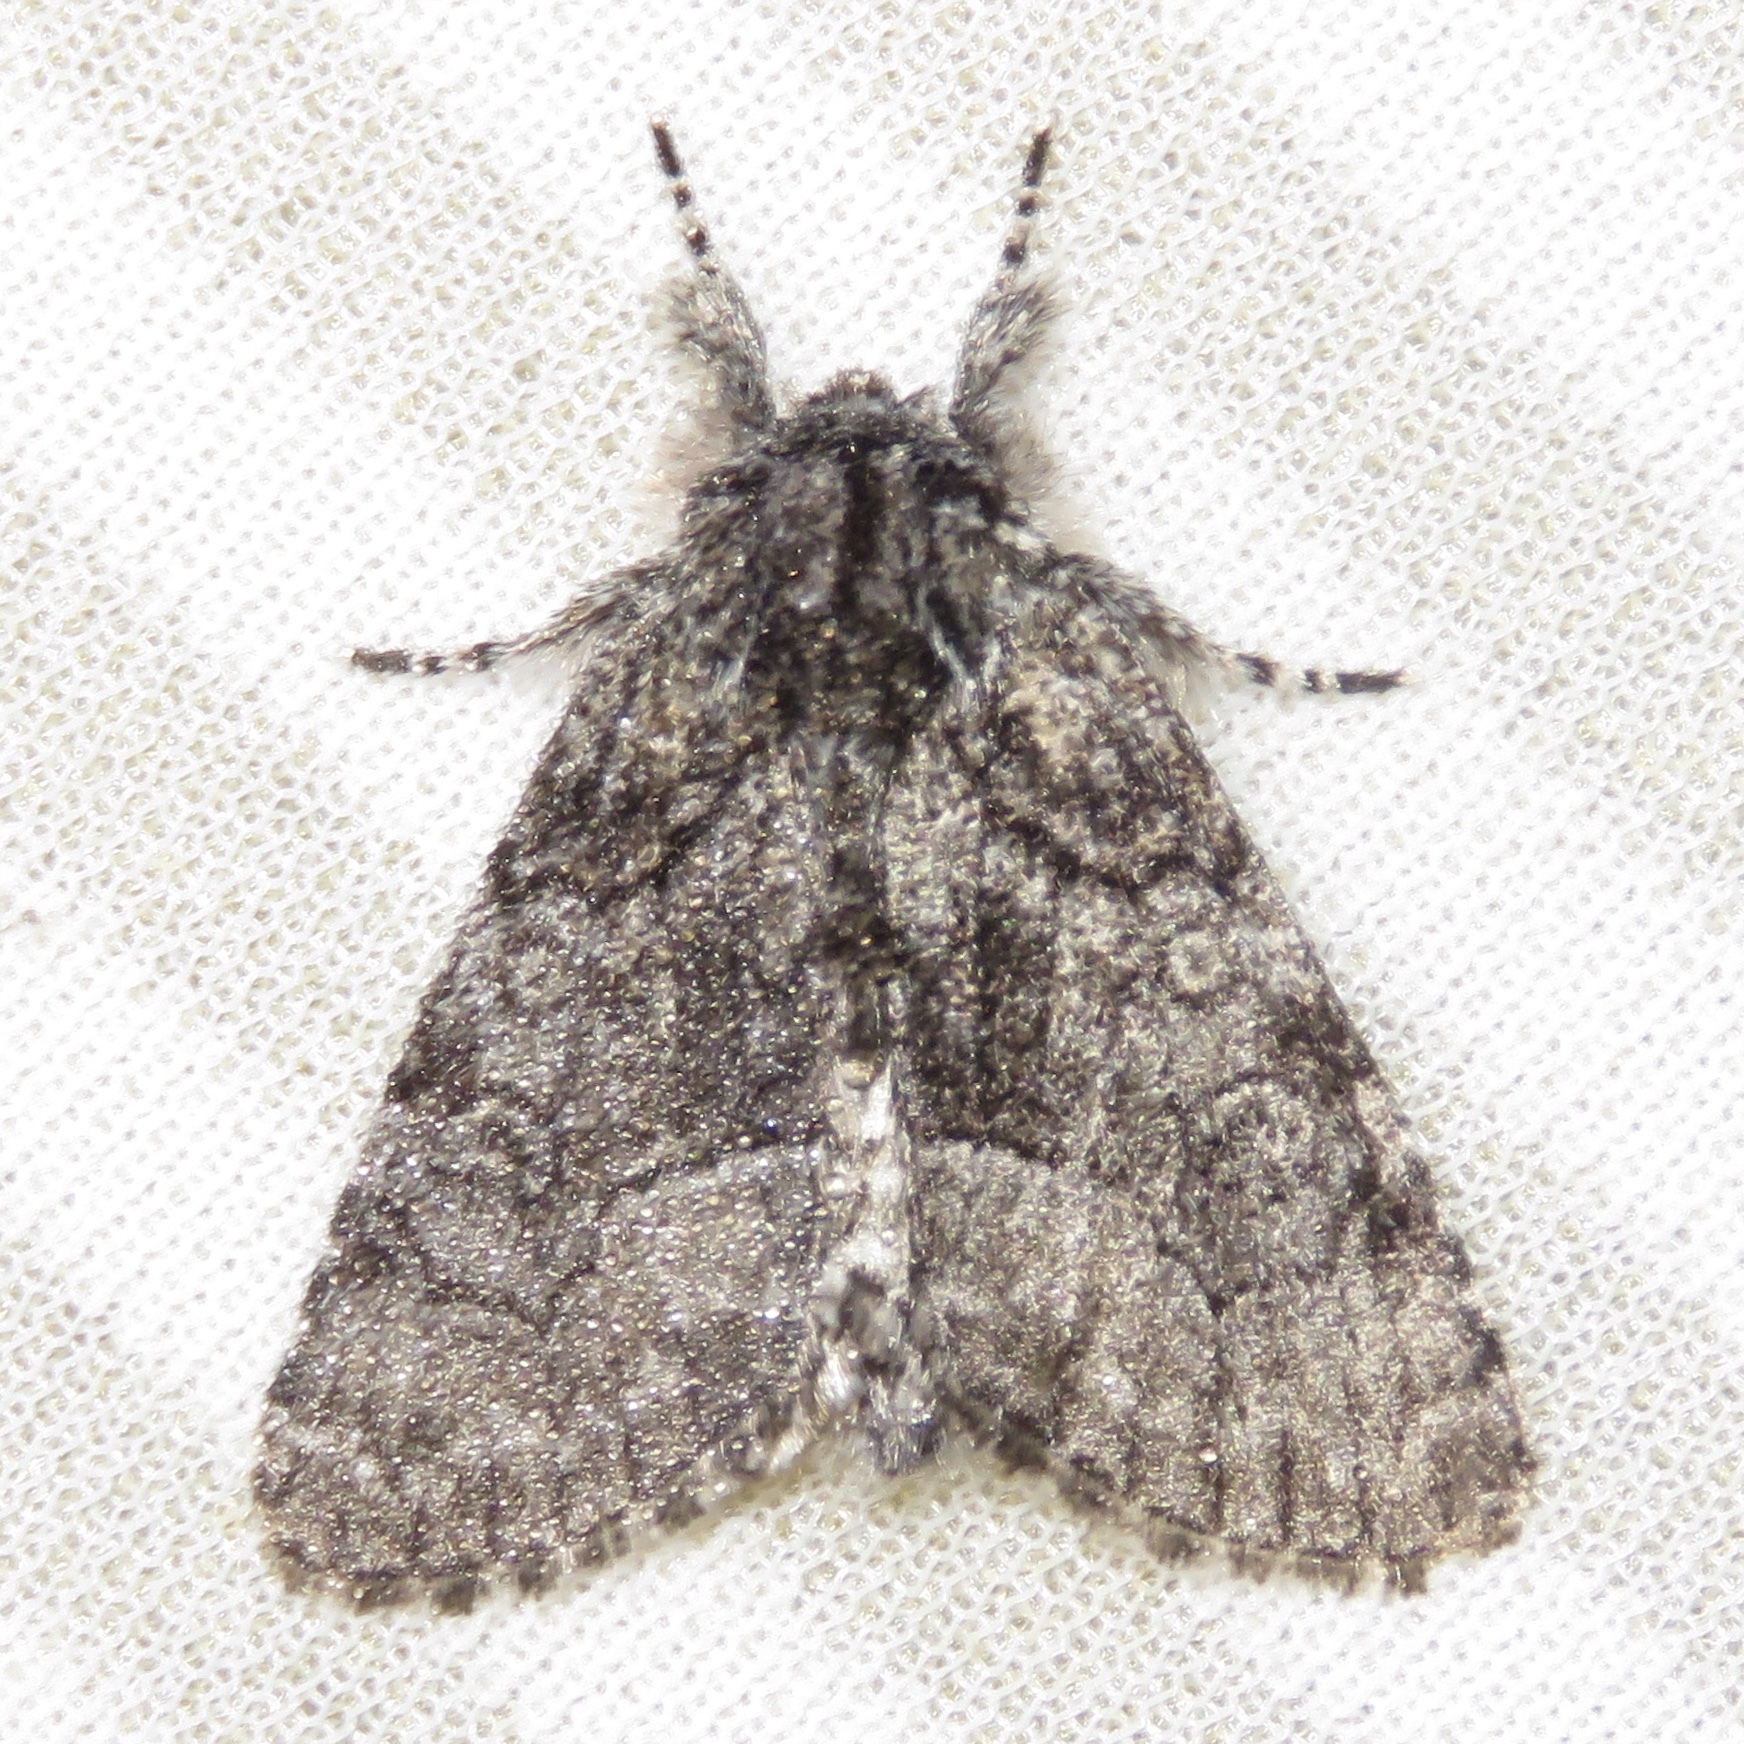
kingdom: Animalia
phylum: Arthropoda
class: Insecta
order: Lepidoptera
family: Noctuidae
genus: Raphia
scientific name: Raphia frater
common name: Brother
